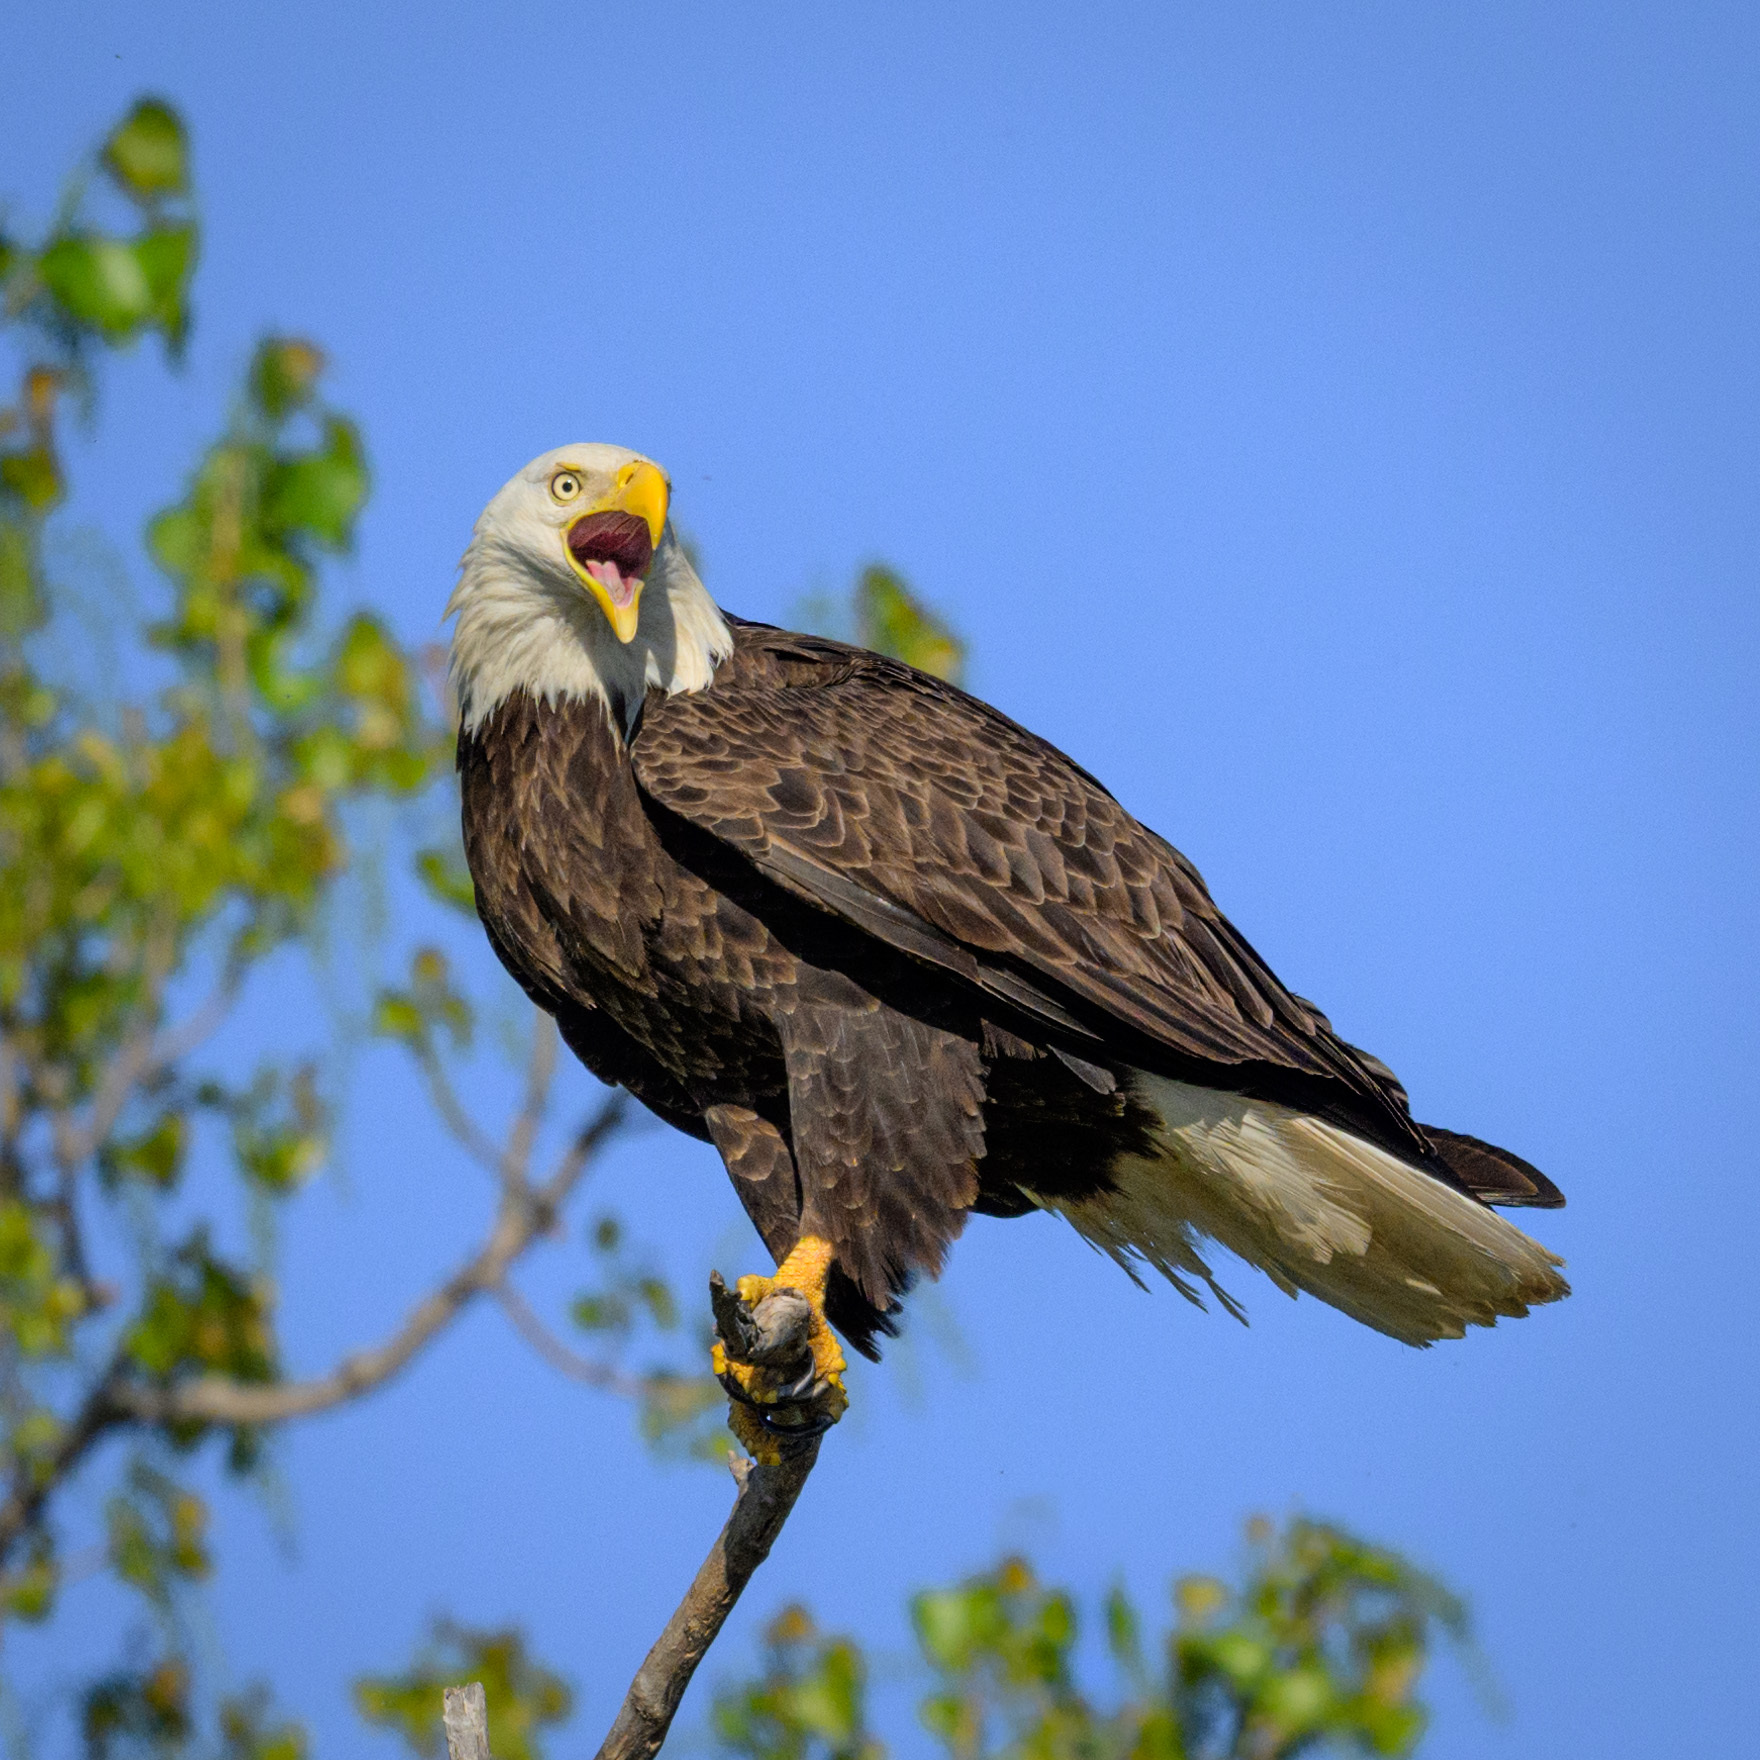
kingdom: Animalia
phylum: Chordata
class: Aves
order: Accipitriformes
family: Accipitridae
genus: Haliaeetus
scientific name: Haliaeetus leucocephalus
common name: Bald eagle
